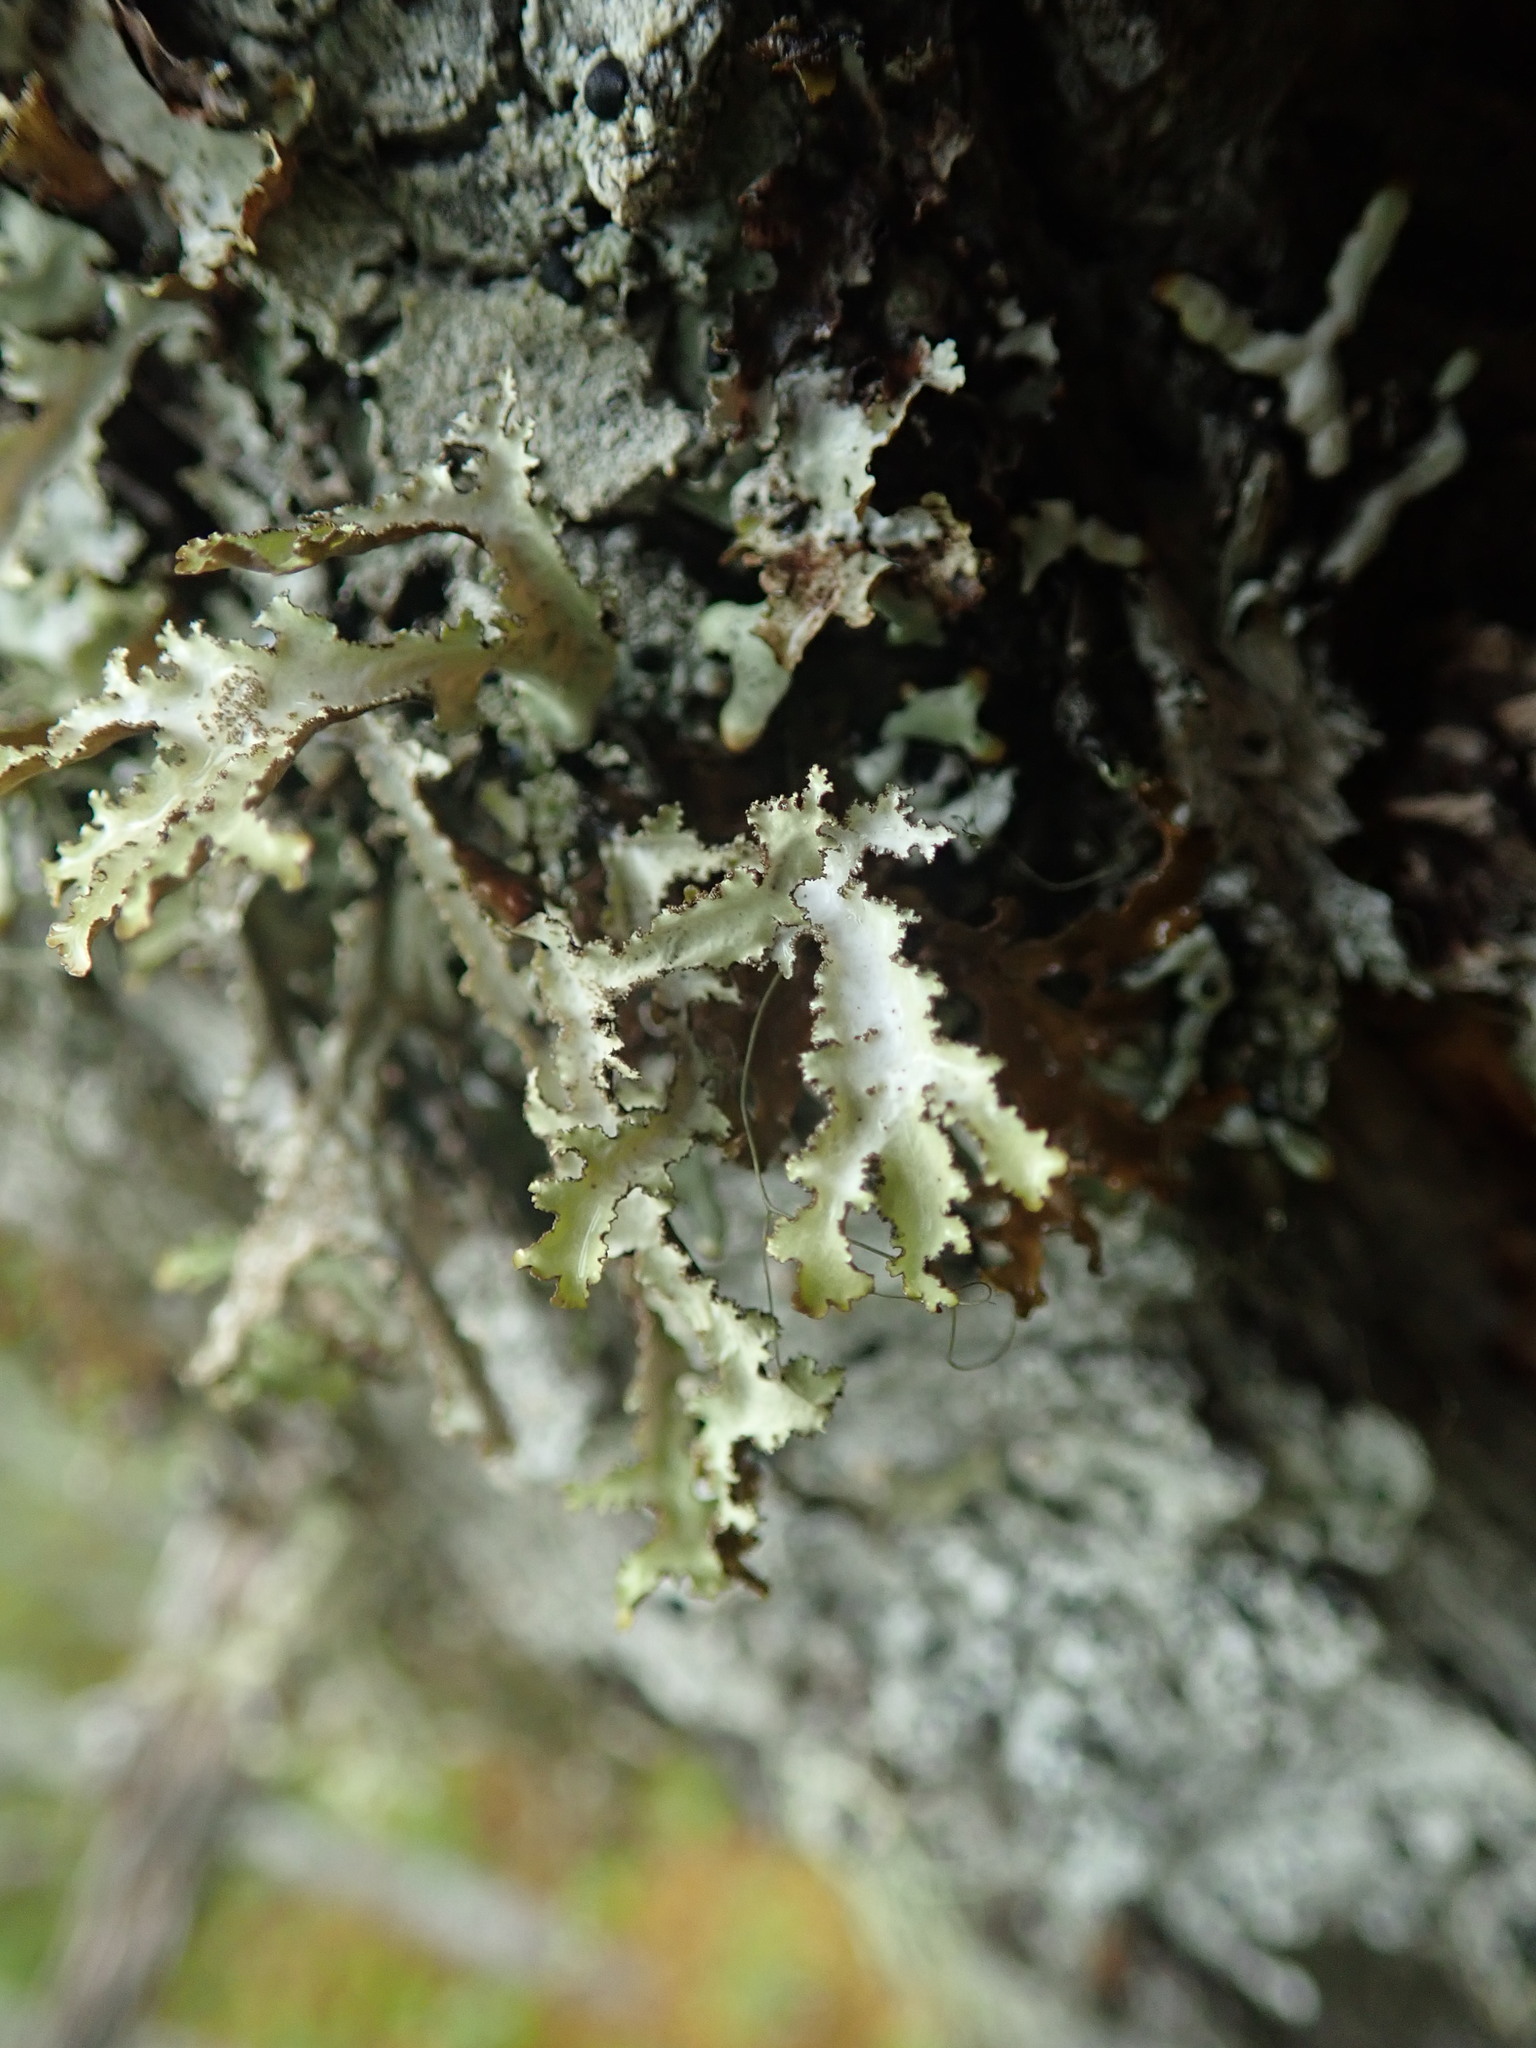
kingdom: Fungi
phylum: Ascomycota
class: Lecanoromycetes
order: Lecanorales
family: Parmeliaceae
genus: Platismatia
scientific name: Platismatia herrei
